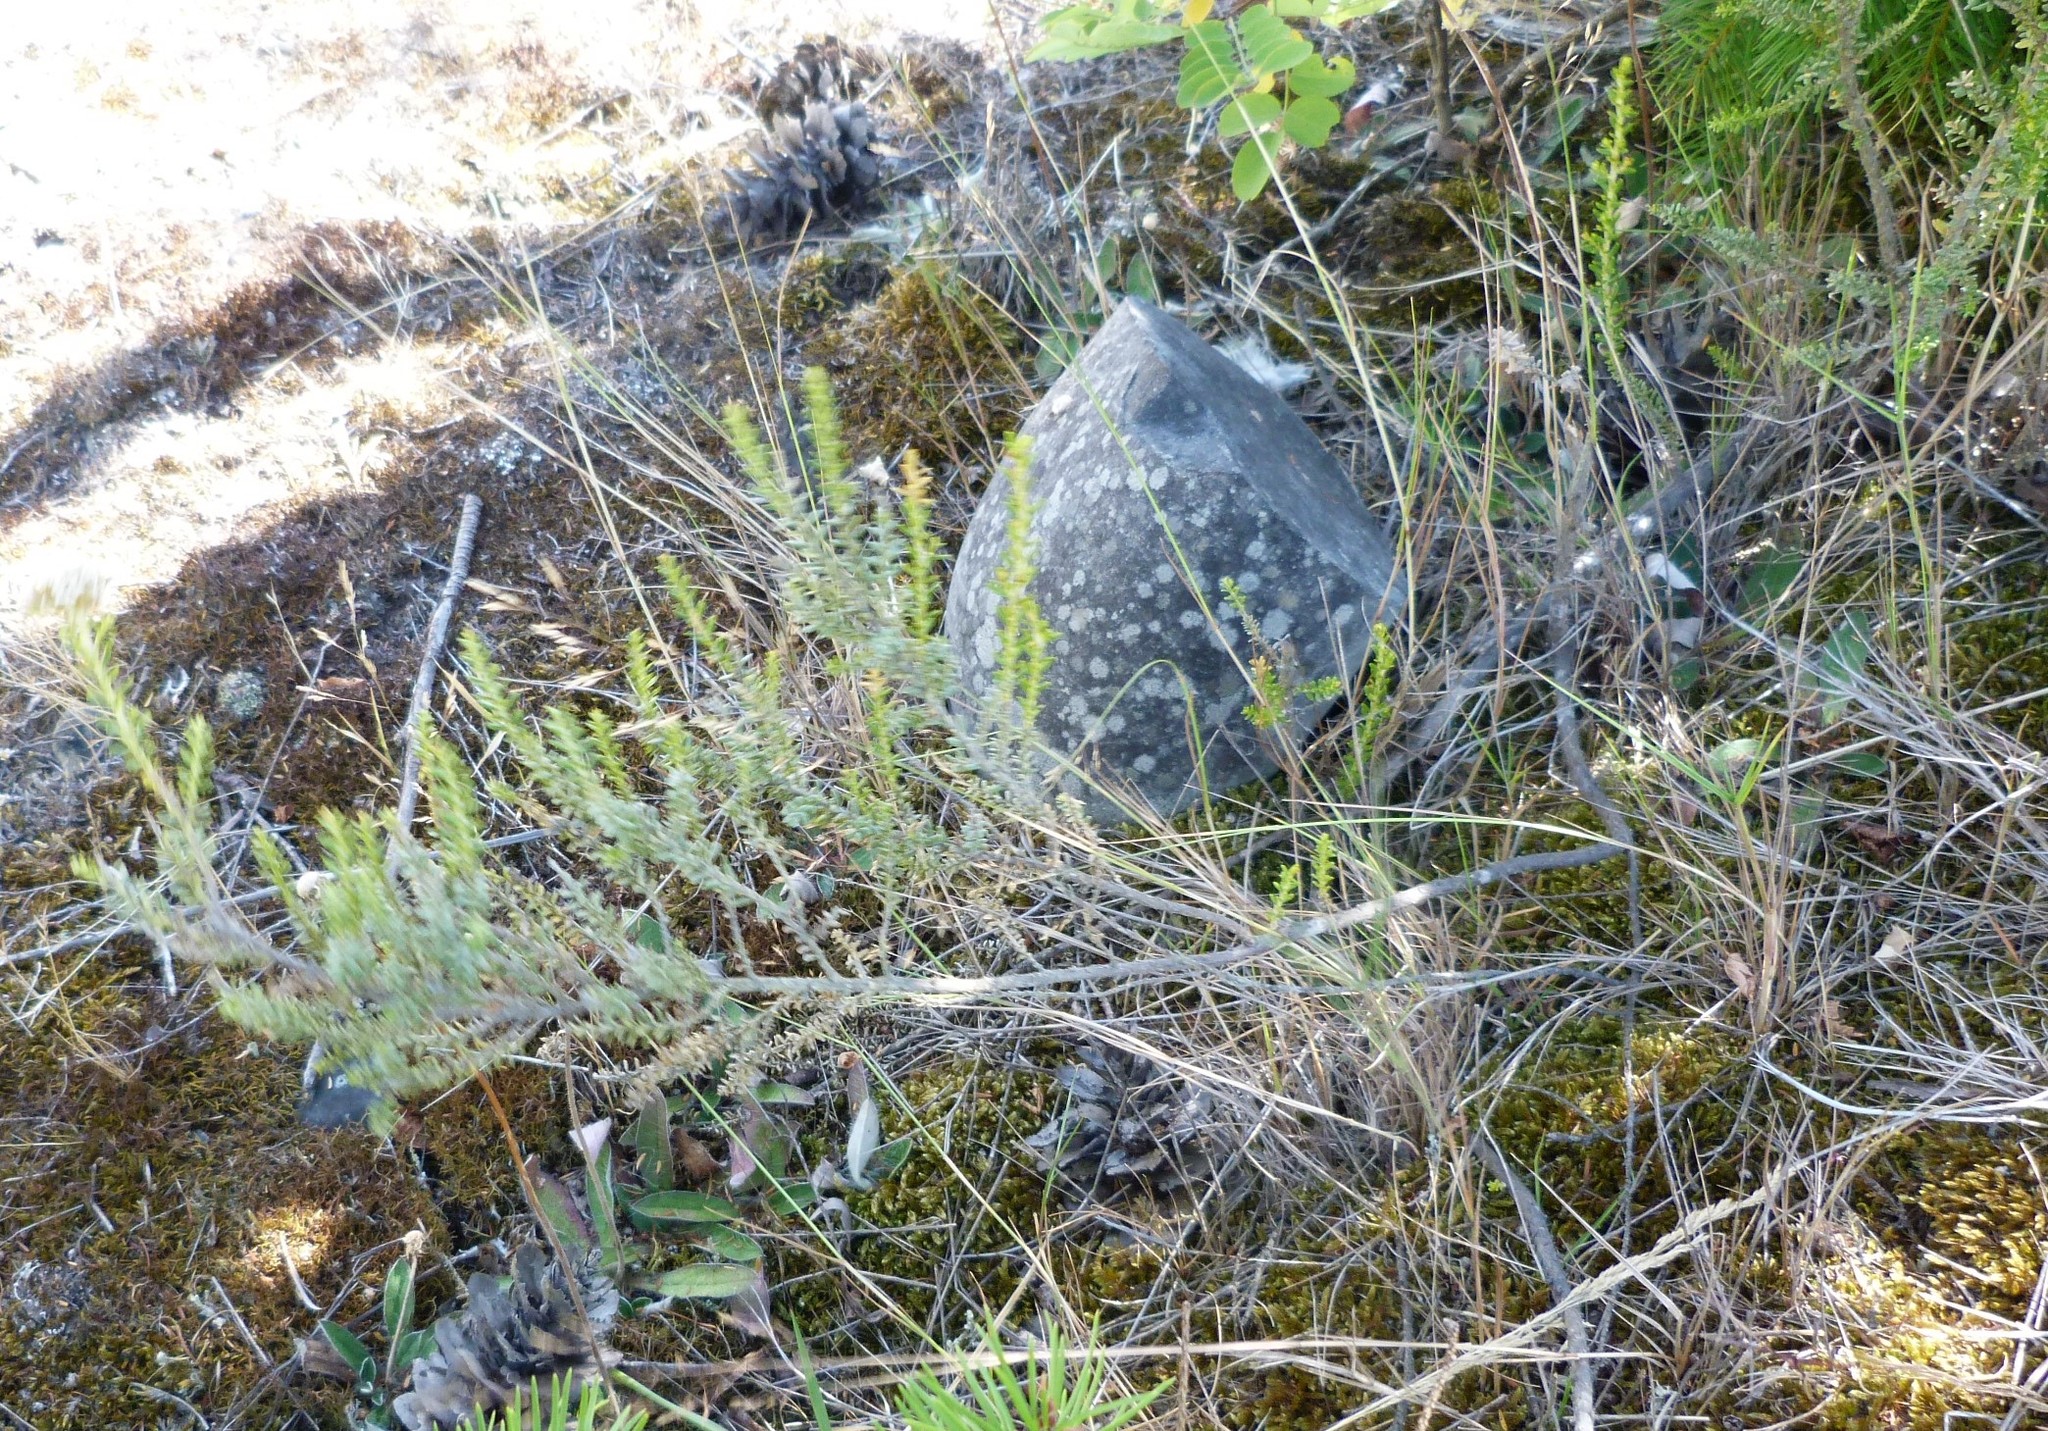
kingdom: Plantae
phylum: Tracheophyta
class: Magnoliopsida
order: Asterales
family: Asteraceae
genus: Ozothamnus
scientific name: Ozothamnus leptophyllus
